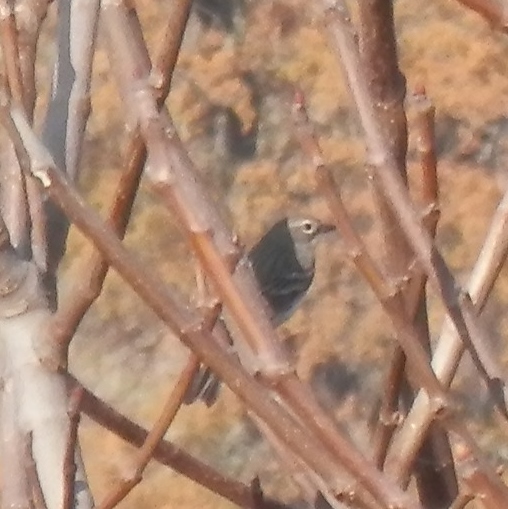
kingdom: Animalia
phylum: Chordata
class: Aves
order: Passeriformes
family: Parulidae
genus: Setophaga
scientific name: Setophaga coronata
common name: Myrtle warbler
